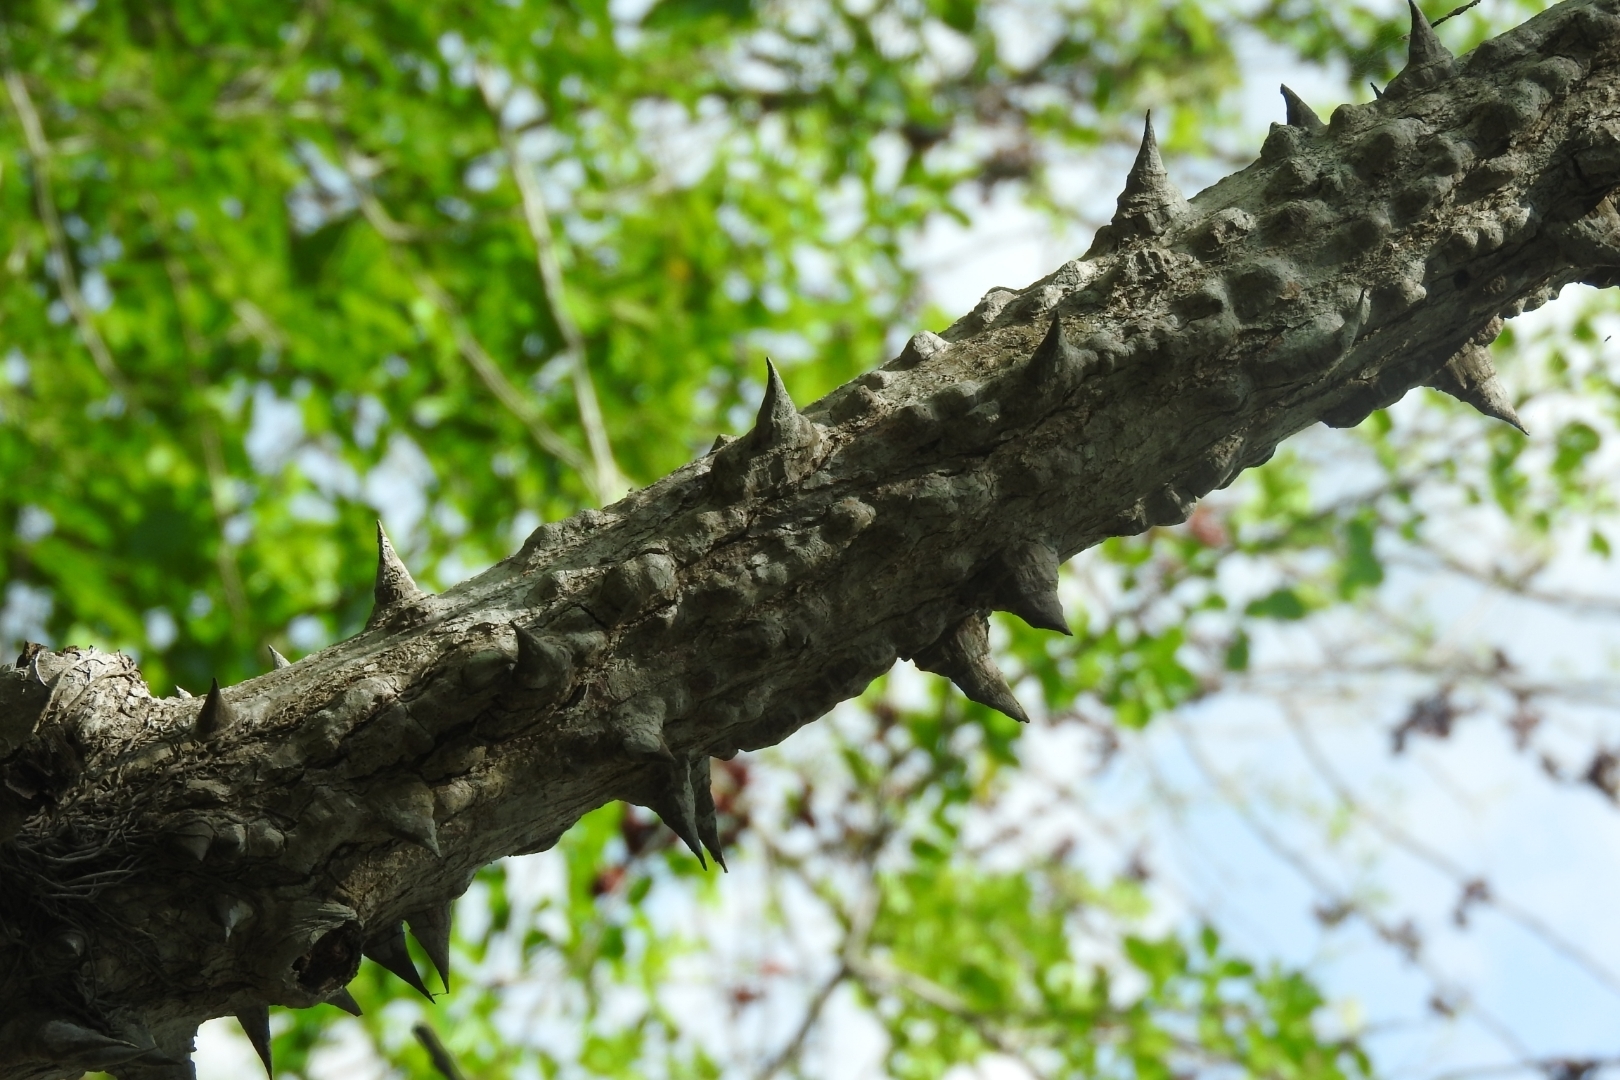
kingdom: Plantae
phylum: Tracheophyta
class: Magnoliopsida
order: Malvales
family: Malvaceae
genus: Ceiba
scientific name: Ceiba aesculifolia
